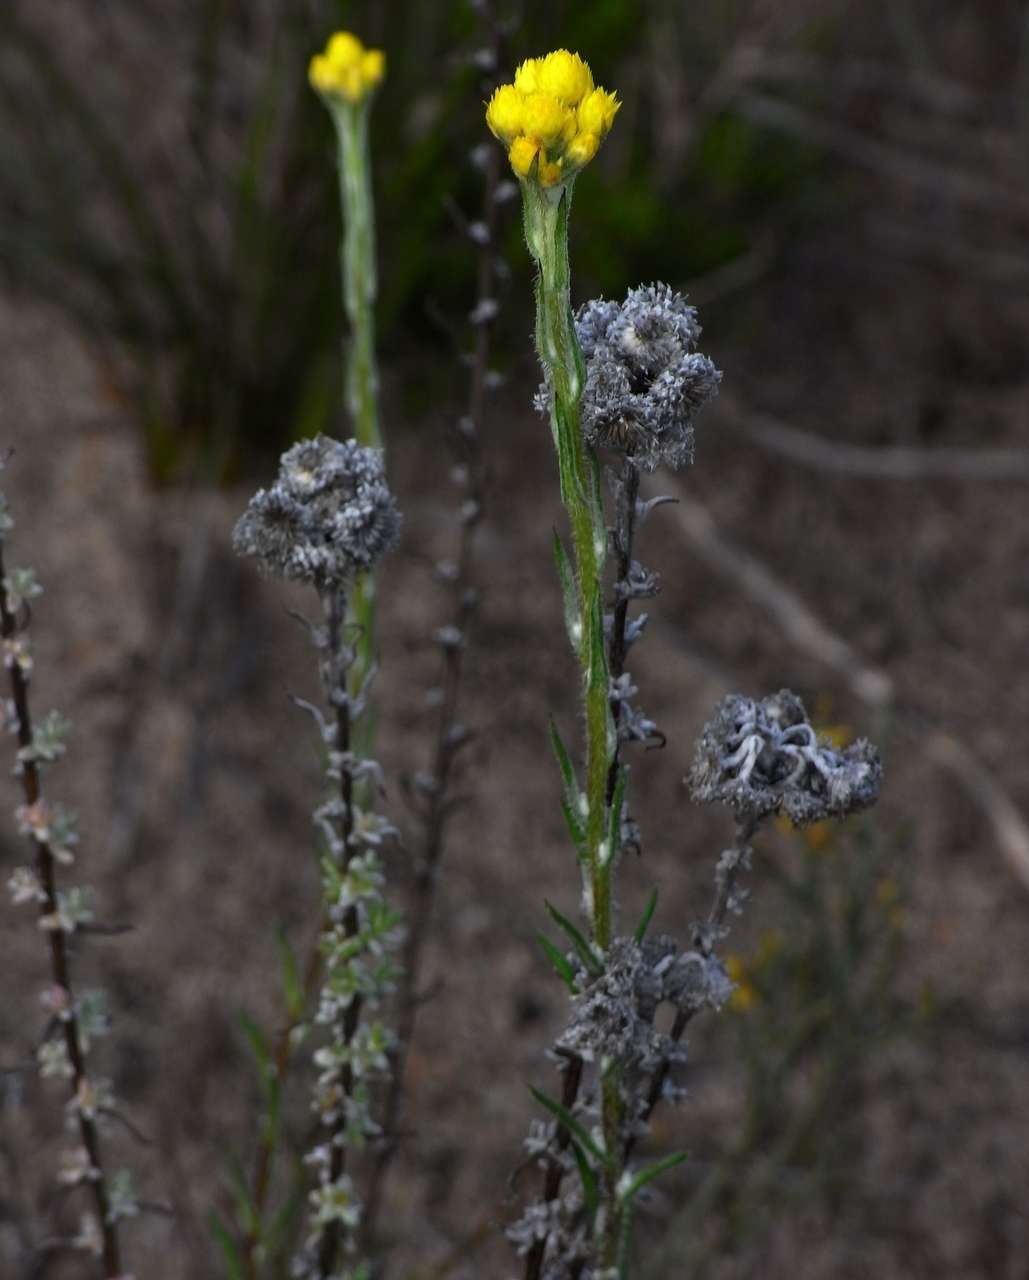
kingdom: Plantae
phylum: Tracheophyta
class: Magnoliopsida
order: Asterales
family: Asteraceae
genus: Chrysocephalum
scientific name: Chrysocephalum semipapposum
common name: Clustered everlasting
